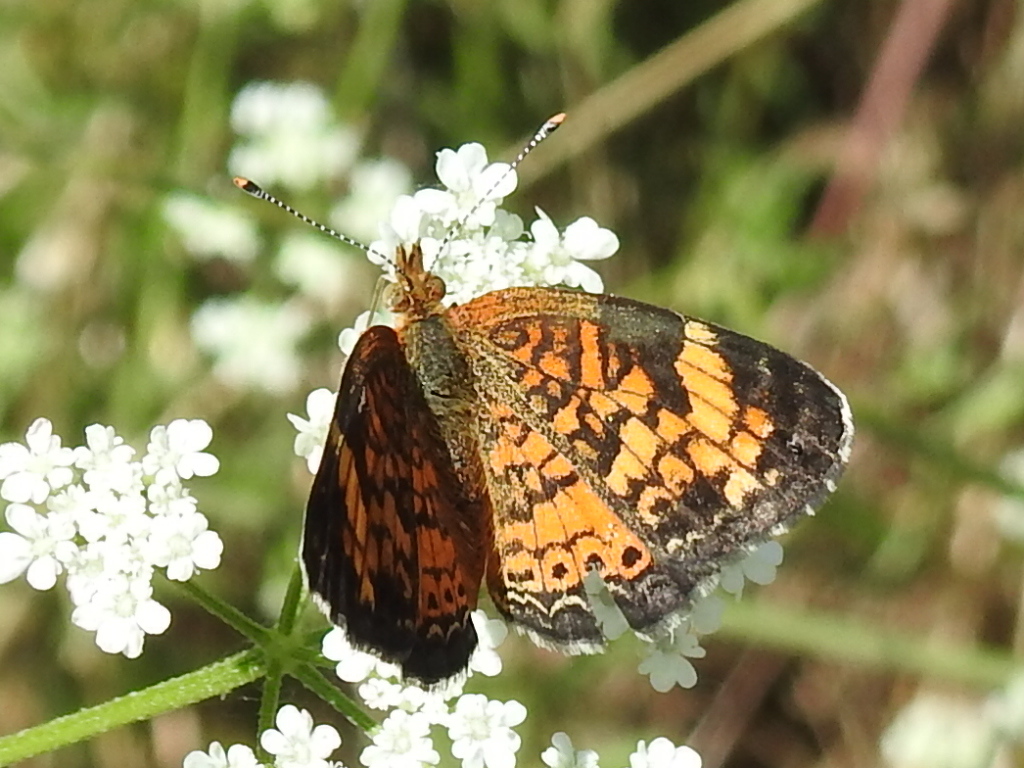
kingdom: Animalia
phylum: Arthropoda
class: Insecta
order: Lepidoptera
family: Nymphalidae
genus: Phyciodes
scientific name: Phyciodes tharos
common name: Pearl crescent
